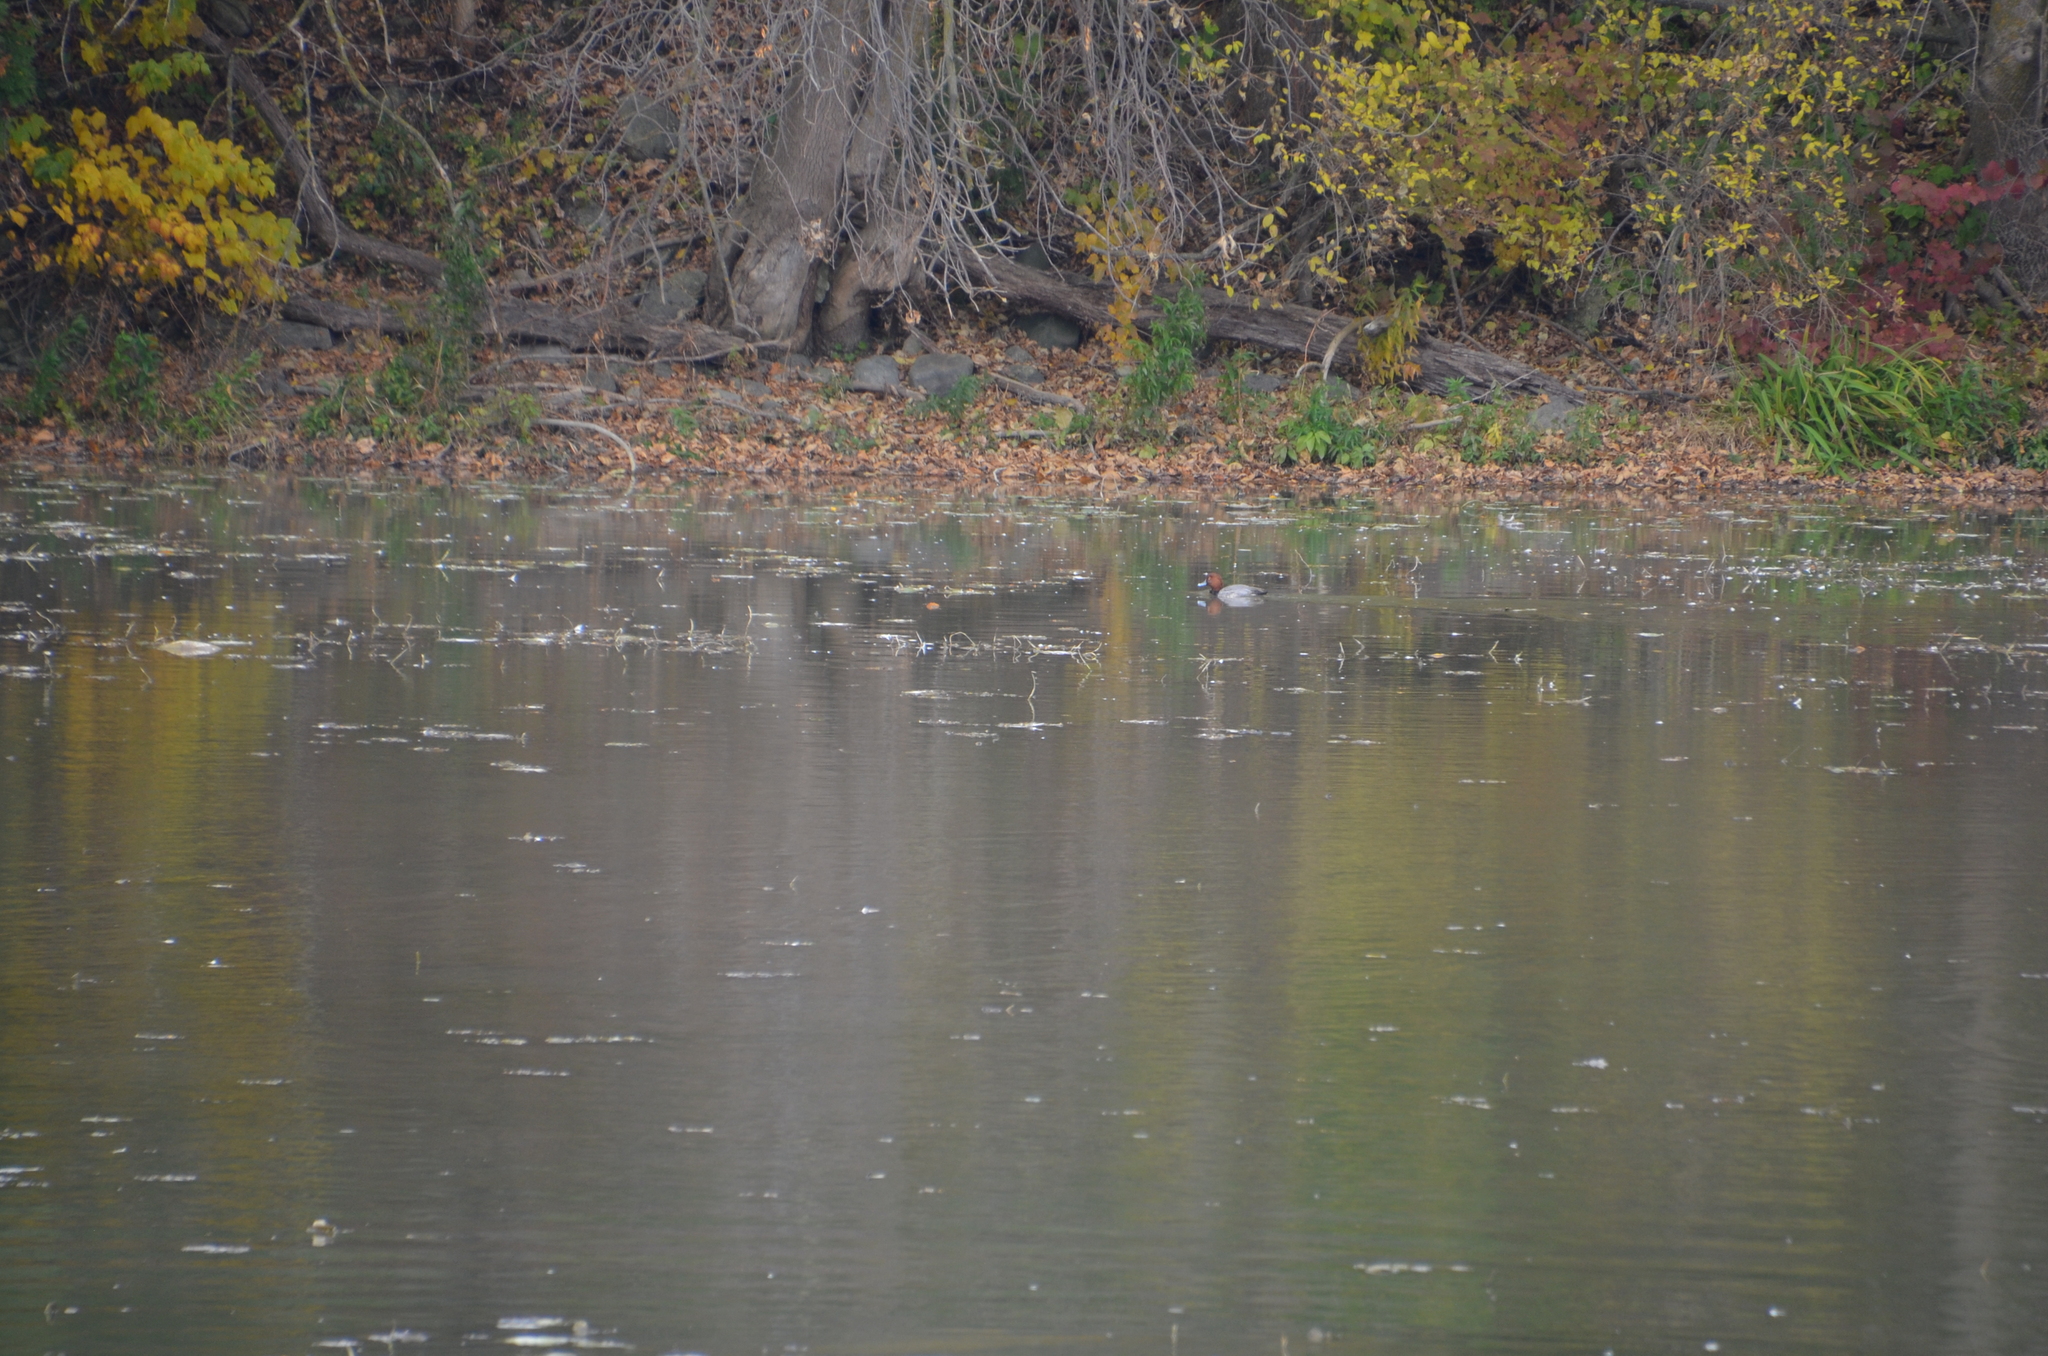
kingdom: Animalia
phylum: Chordata
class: Aves
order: Anseriformes
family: Anatidae
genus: Aythya
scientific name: Aythya americana
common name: Redhead
